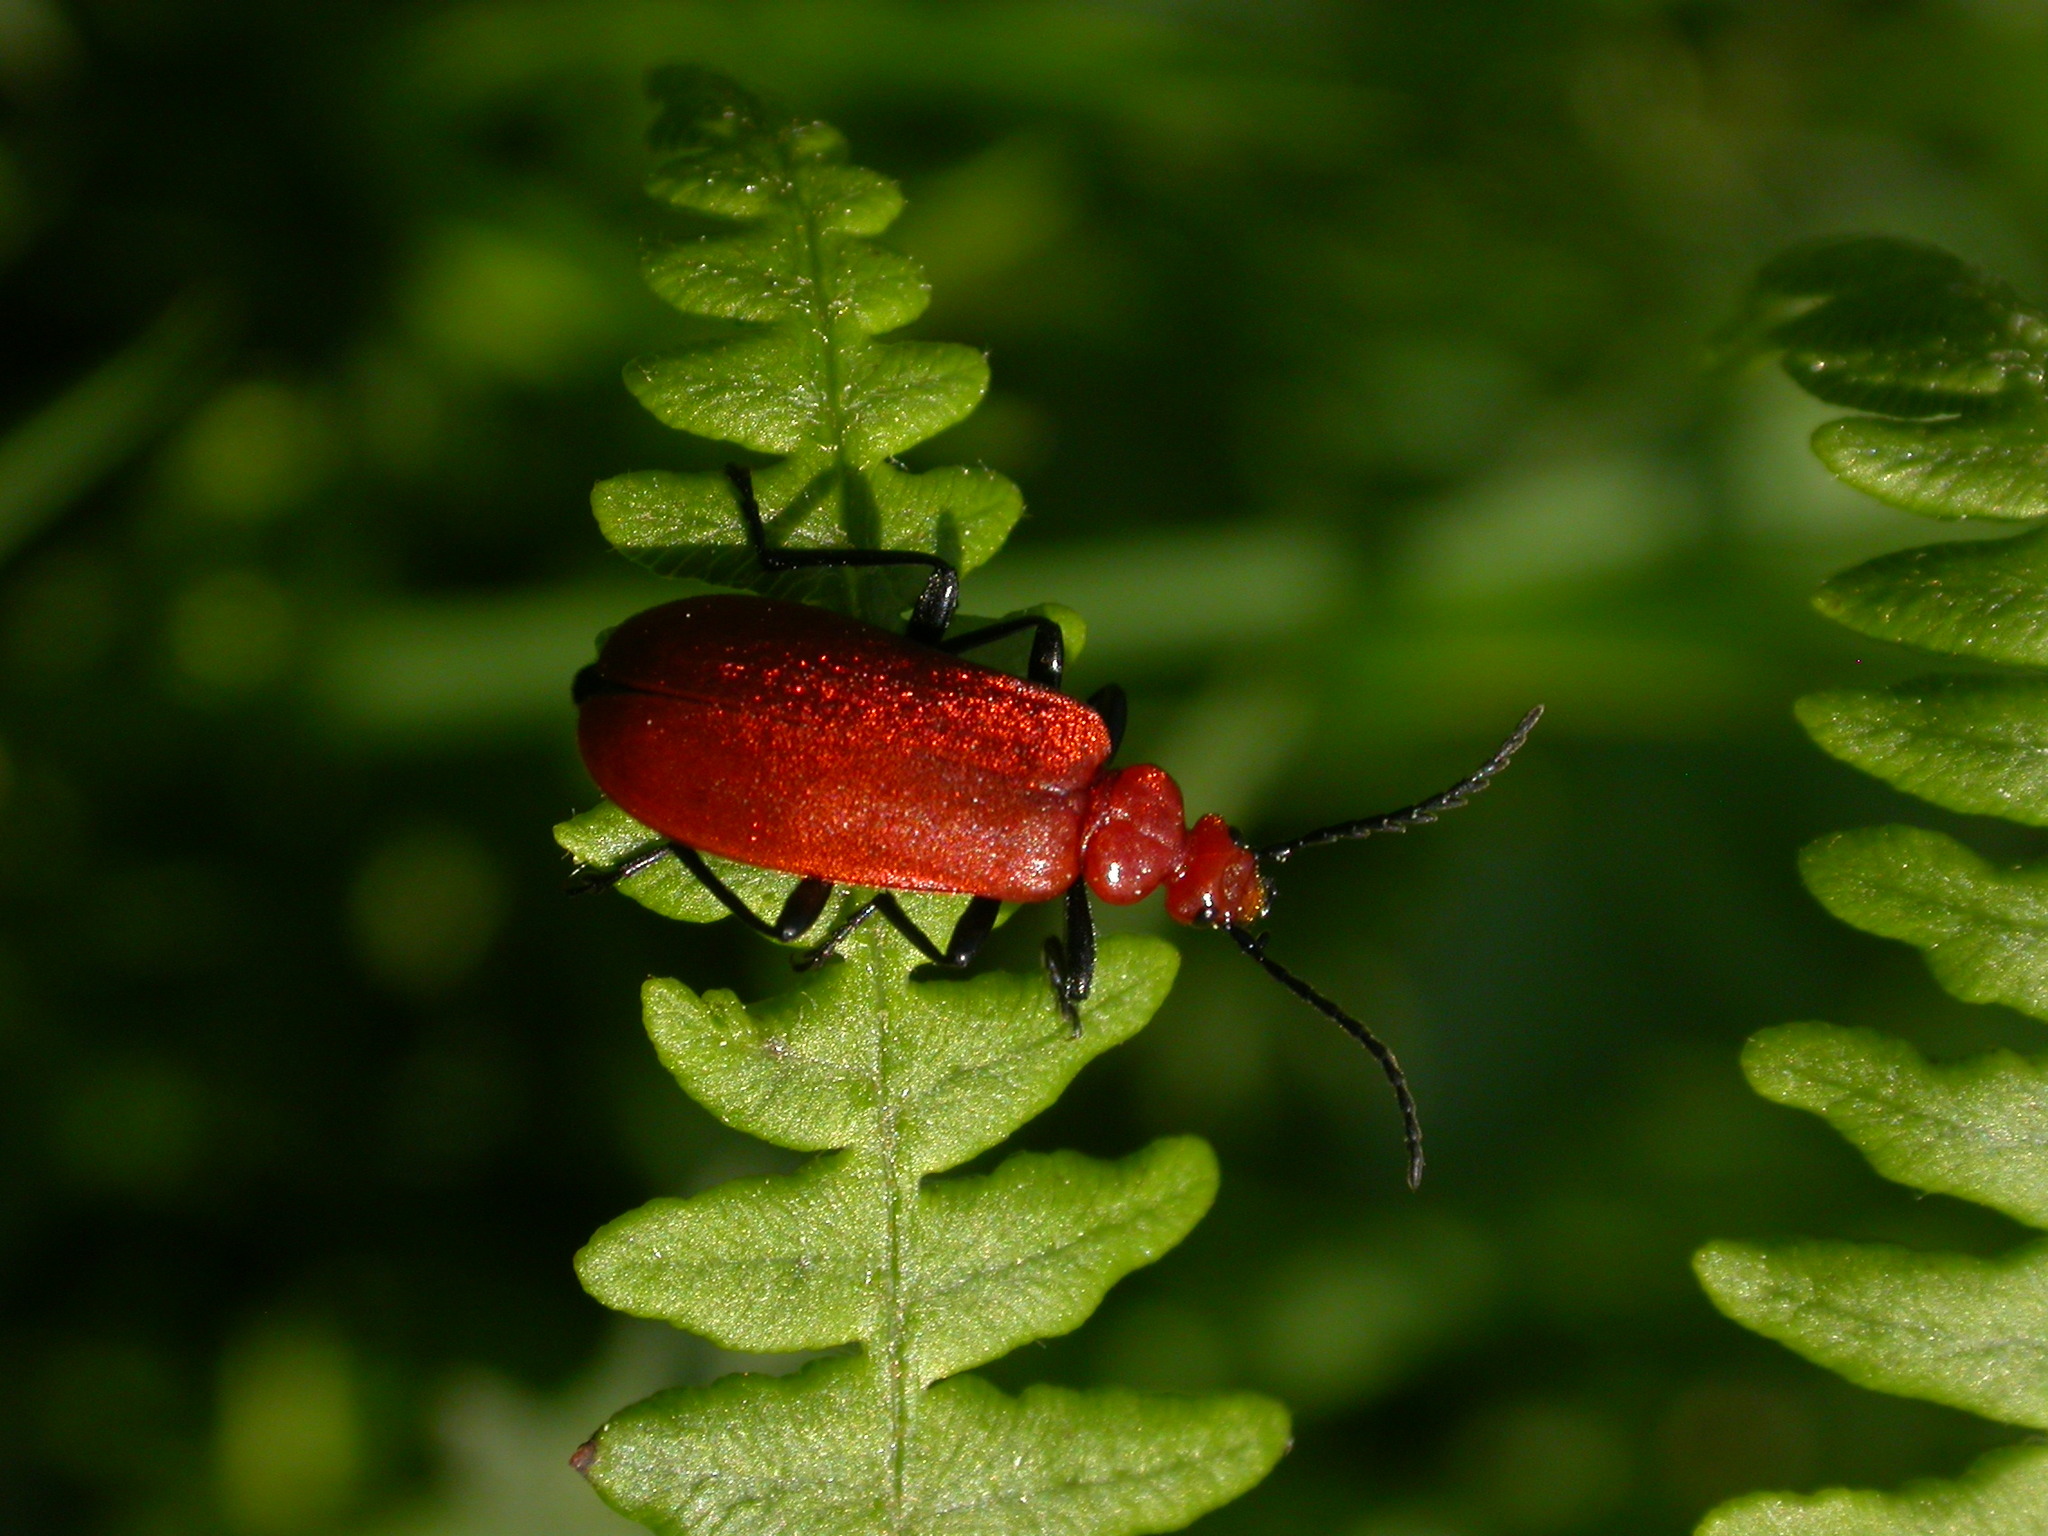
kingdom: Animalia
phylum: Arthropoda
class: Insecta
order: Coleoptera
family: Pyrochroidae
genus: Pyrochroa
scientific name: Pyrochroa serraticornis
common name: Red-headed cardinal beetle
